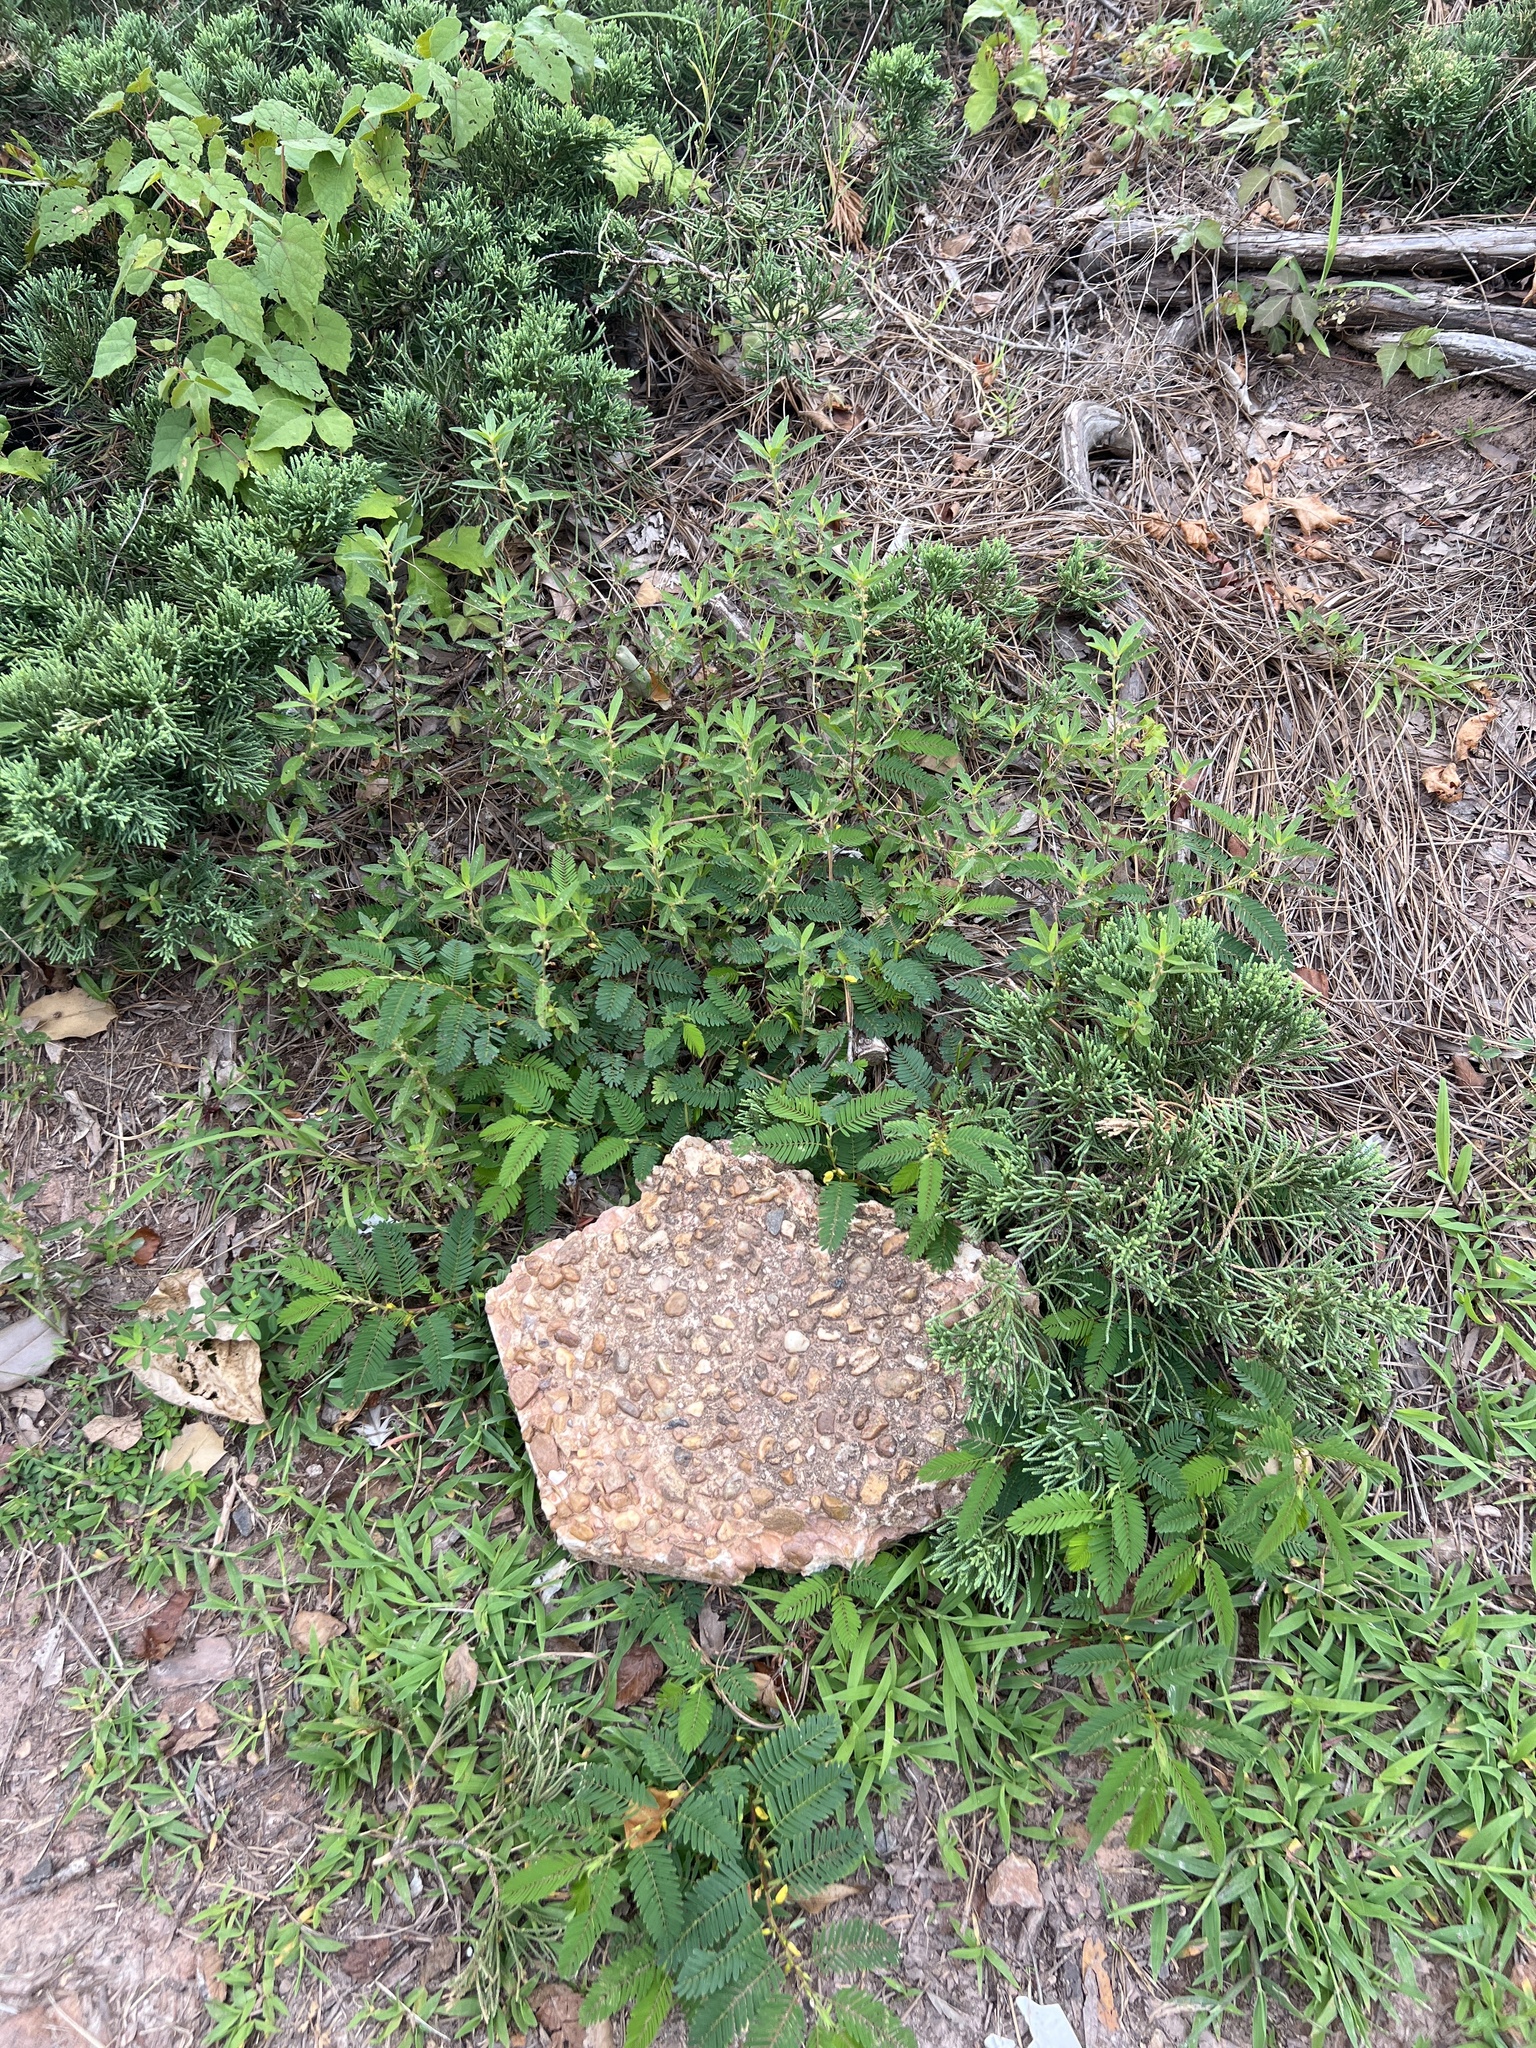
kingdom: Plantae
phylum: Tracheophyta
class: Magnoliopsida
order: Fabales
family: Fabaceae
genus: Chamaecrista
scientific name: Chamaecrista nictitans
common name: Sensitive cassia
